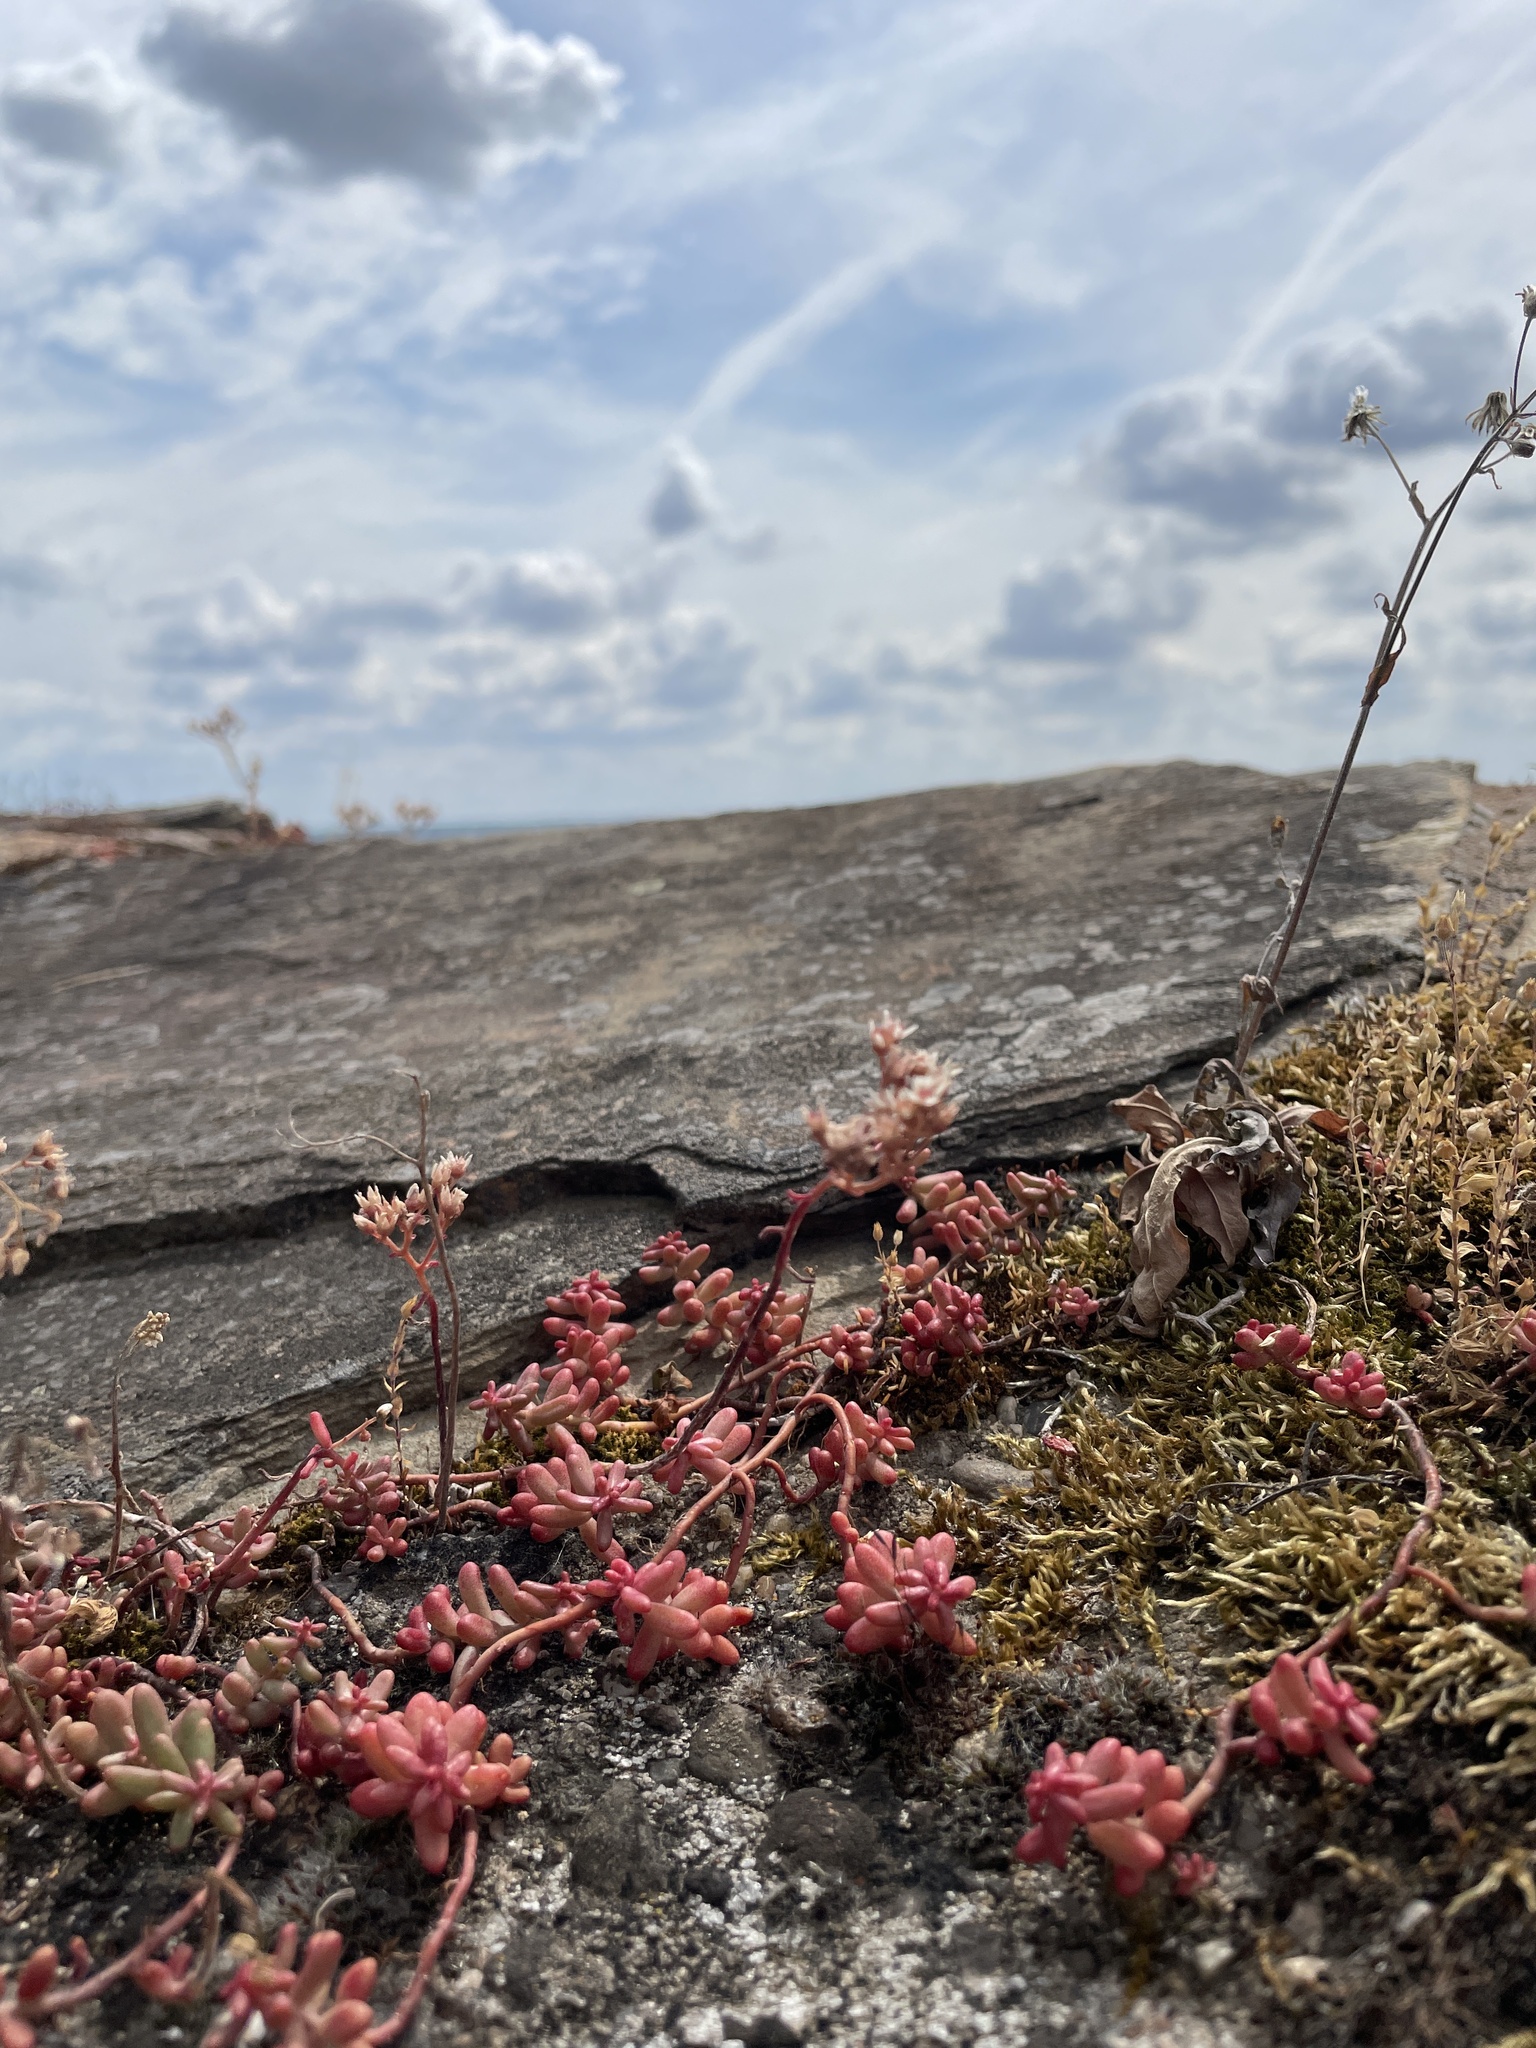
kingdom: Plantae
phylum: Tracheophyta
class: Magnoliopsida
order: Saxifragales
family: Crassulaceae
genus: Sedum
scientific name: Sedum album
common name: White stonecrop
